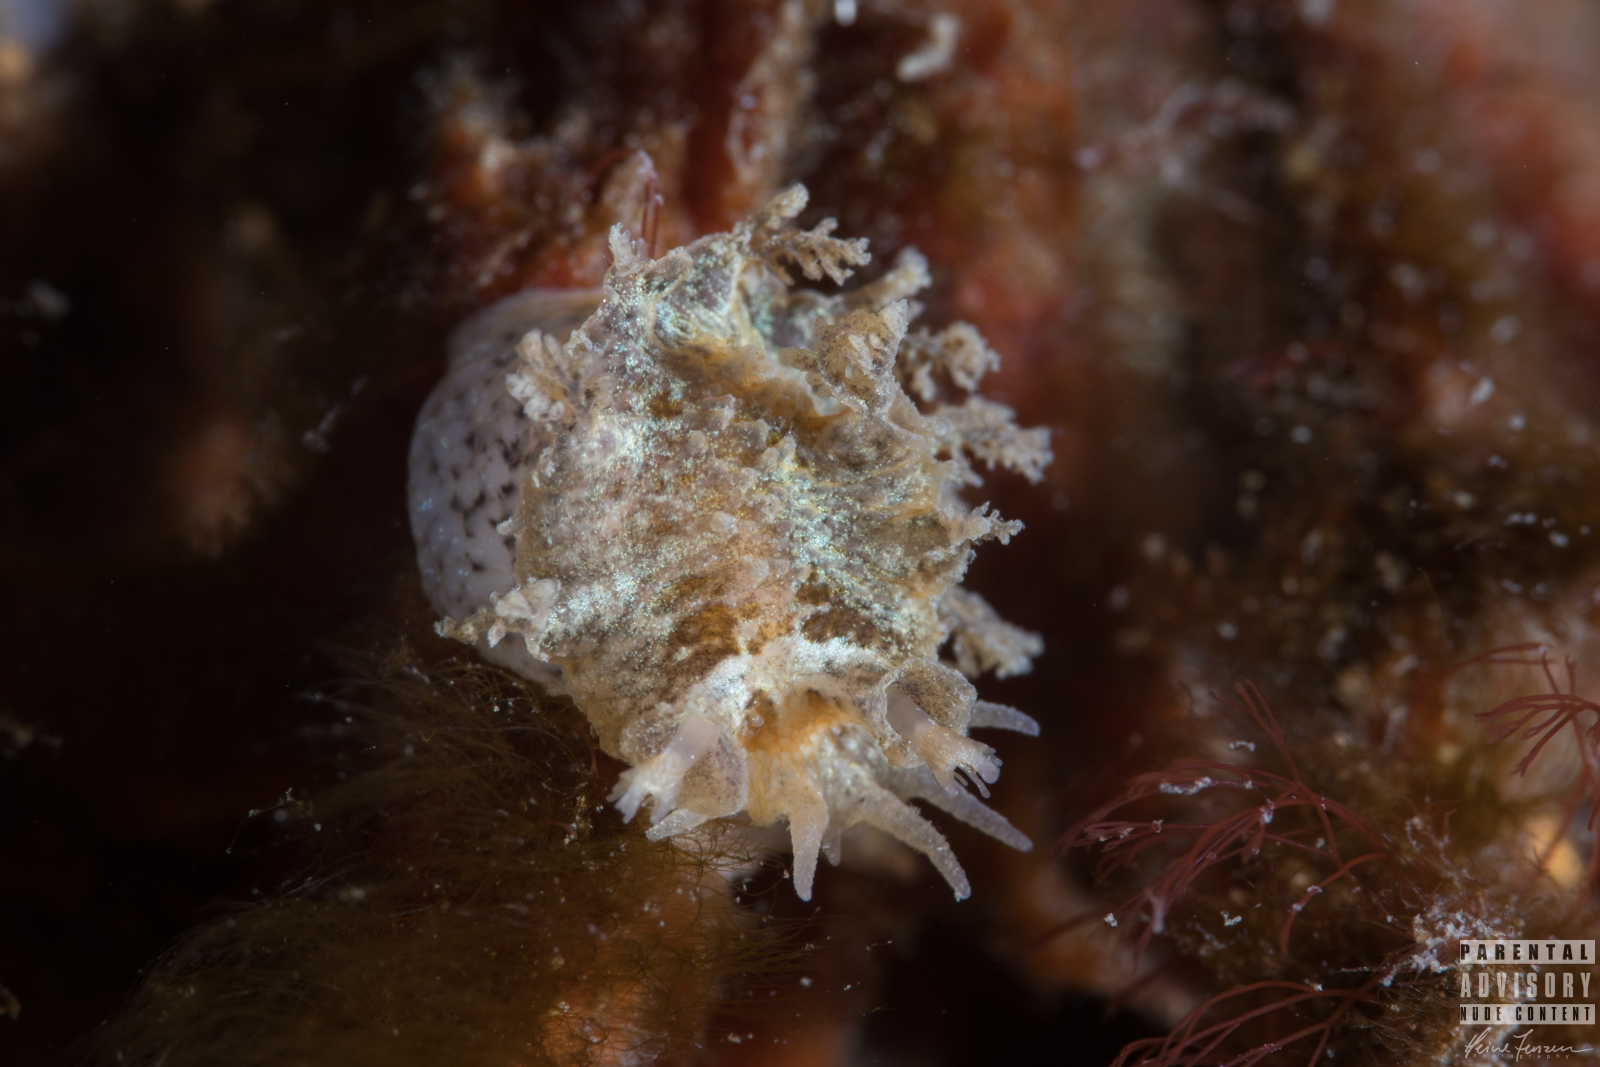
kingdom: Animalia
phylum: Mollusca
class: Gastropoda
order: Nudibranchia
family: Tritoniidae
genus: Duvaucelia
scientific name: Duvaucelia plebeia
